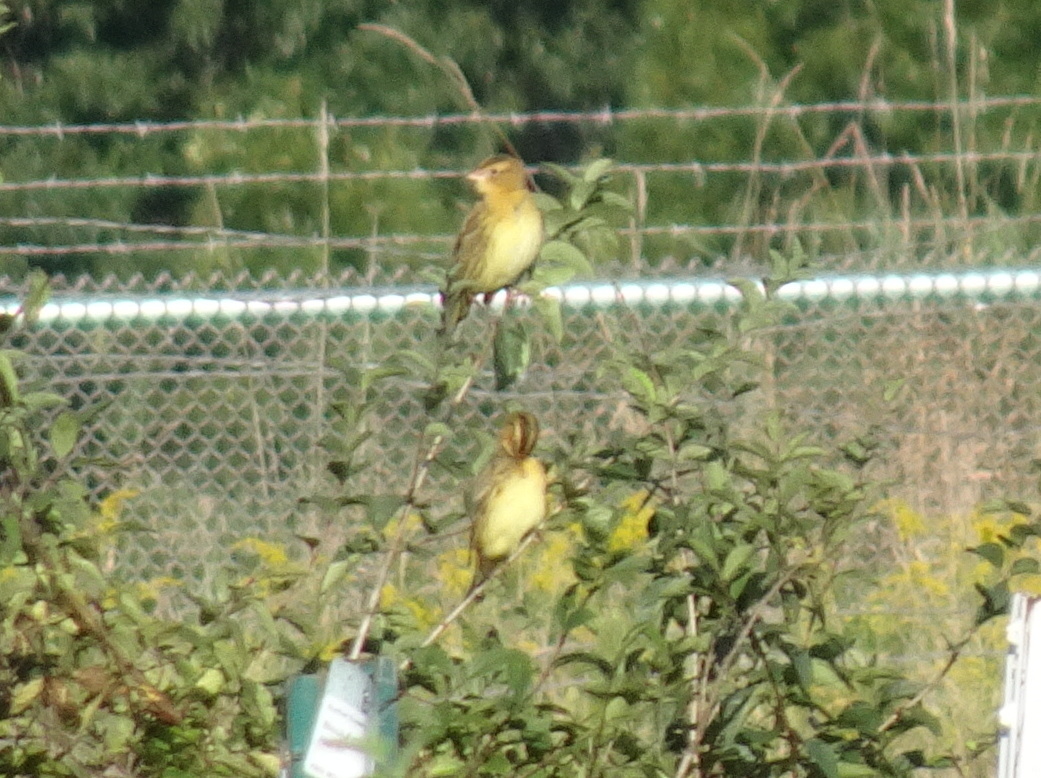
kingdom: Animalia
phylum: Chordata
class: Aves
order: Passeriformes
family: Icteridae
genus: Dolichonyx
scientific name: Dolichonyx oryzivorus
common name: Bobolink
